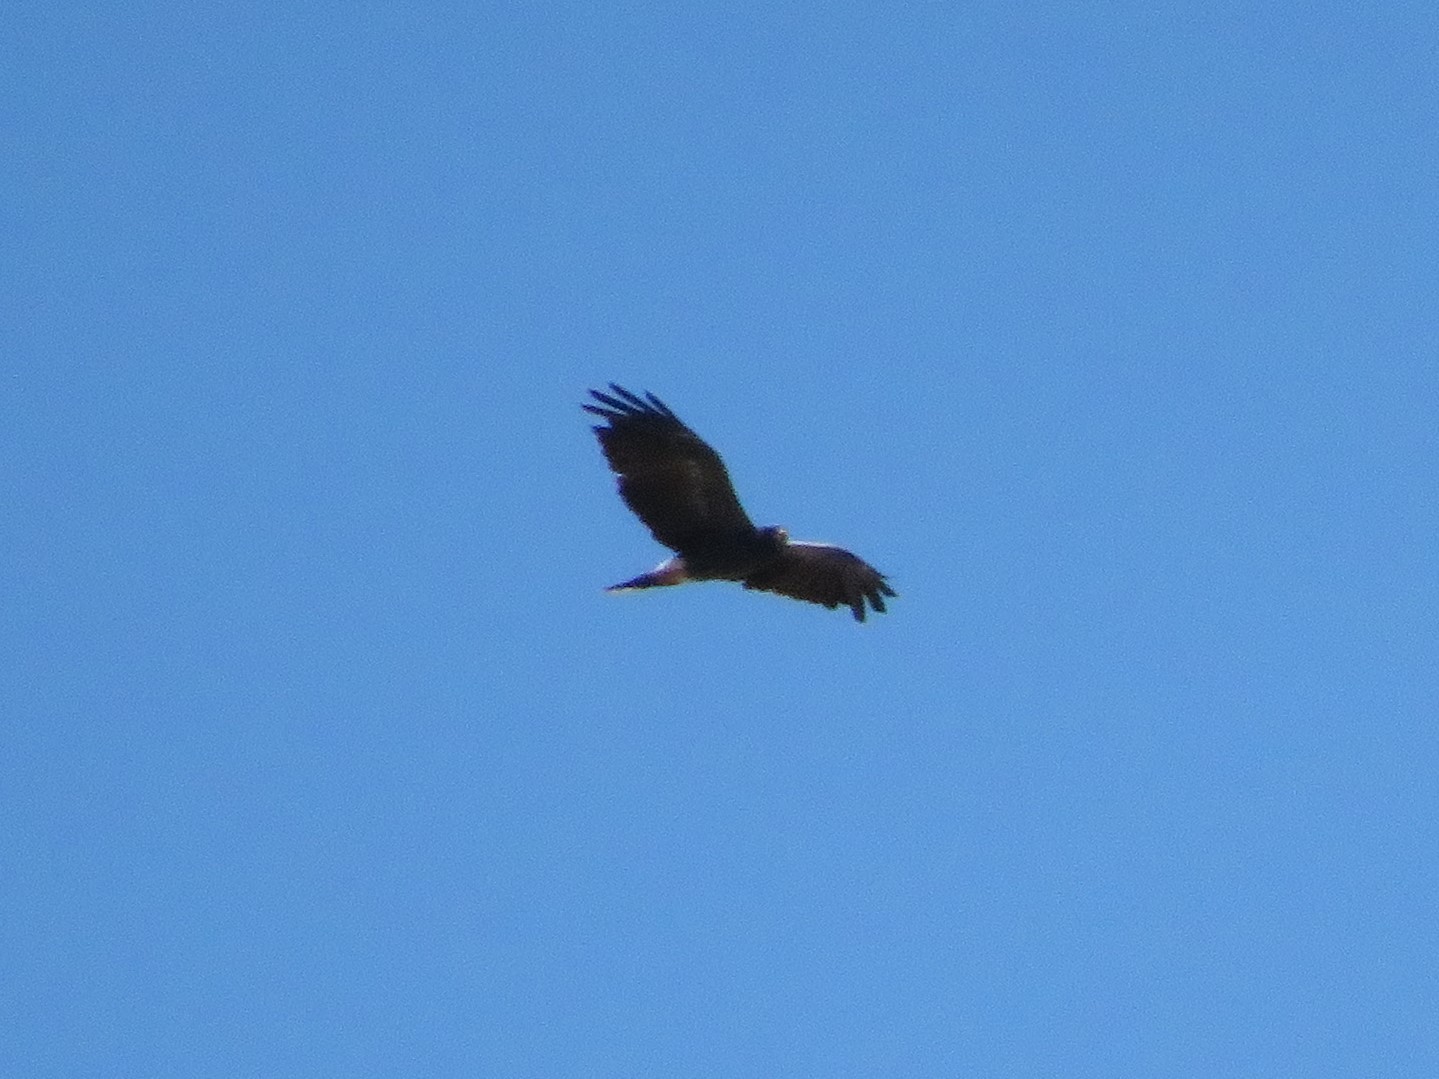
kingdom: Animalia
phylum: Chordata
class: Aves
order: Accipitriformes
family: Accipitridae
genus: Rostrhamus
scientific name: Rostrhamus sociabilis
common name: Snail kite
